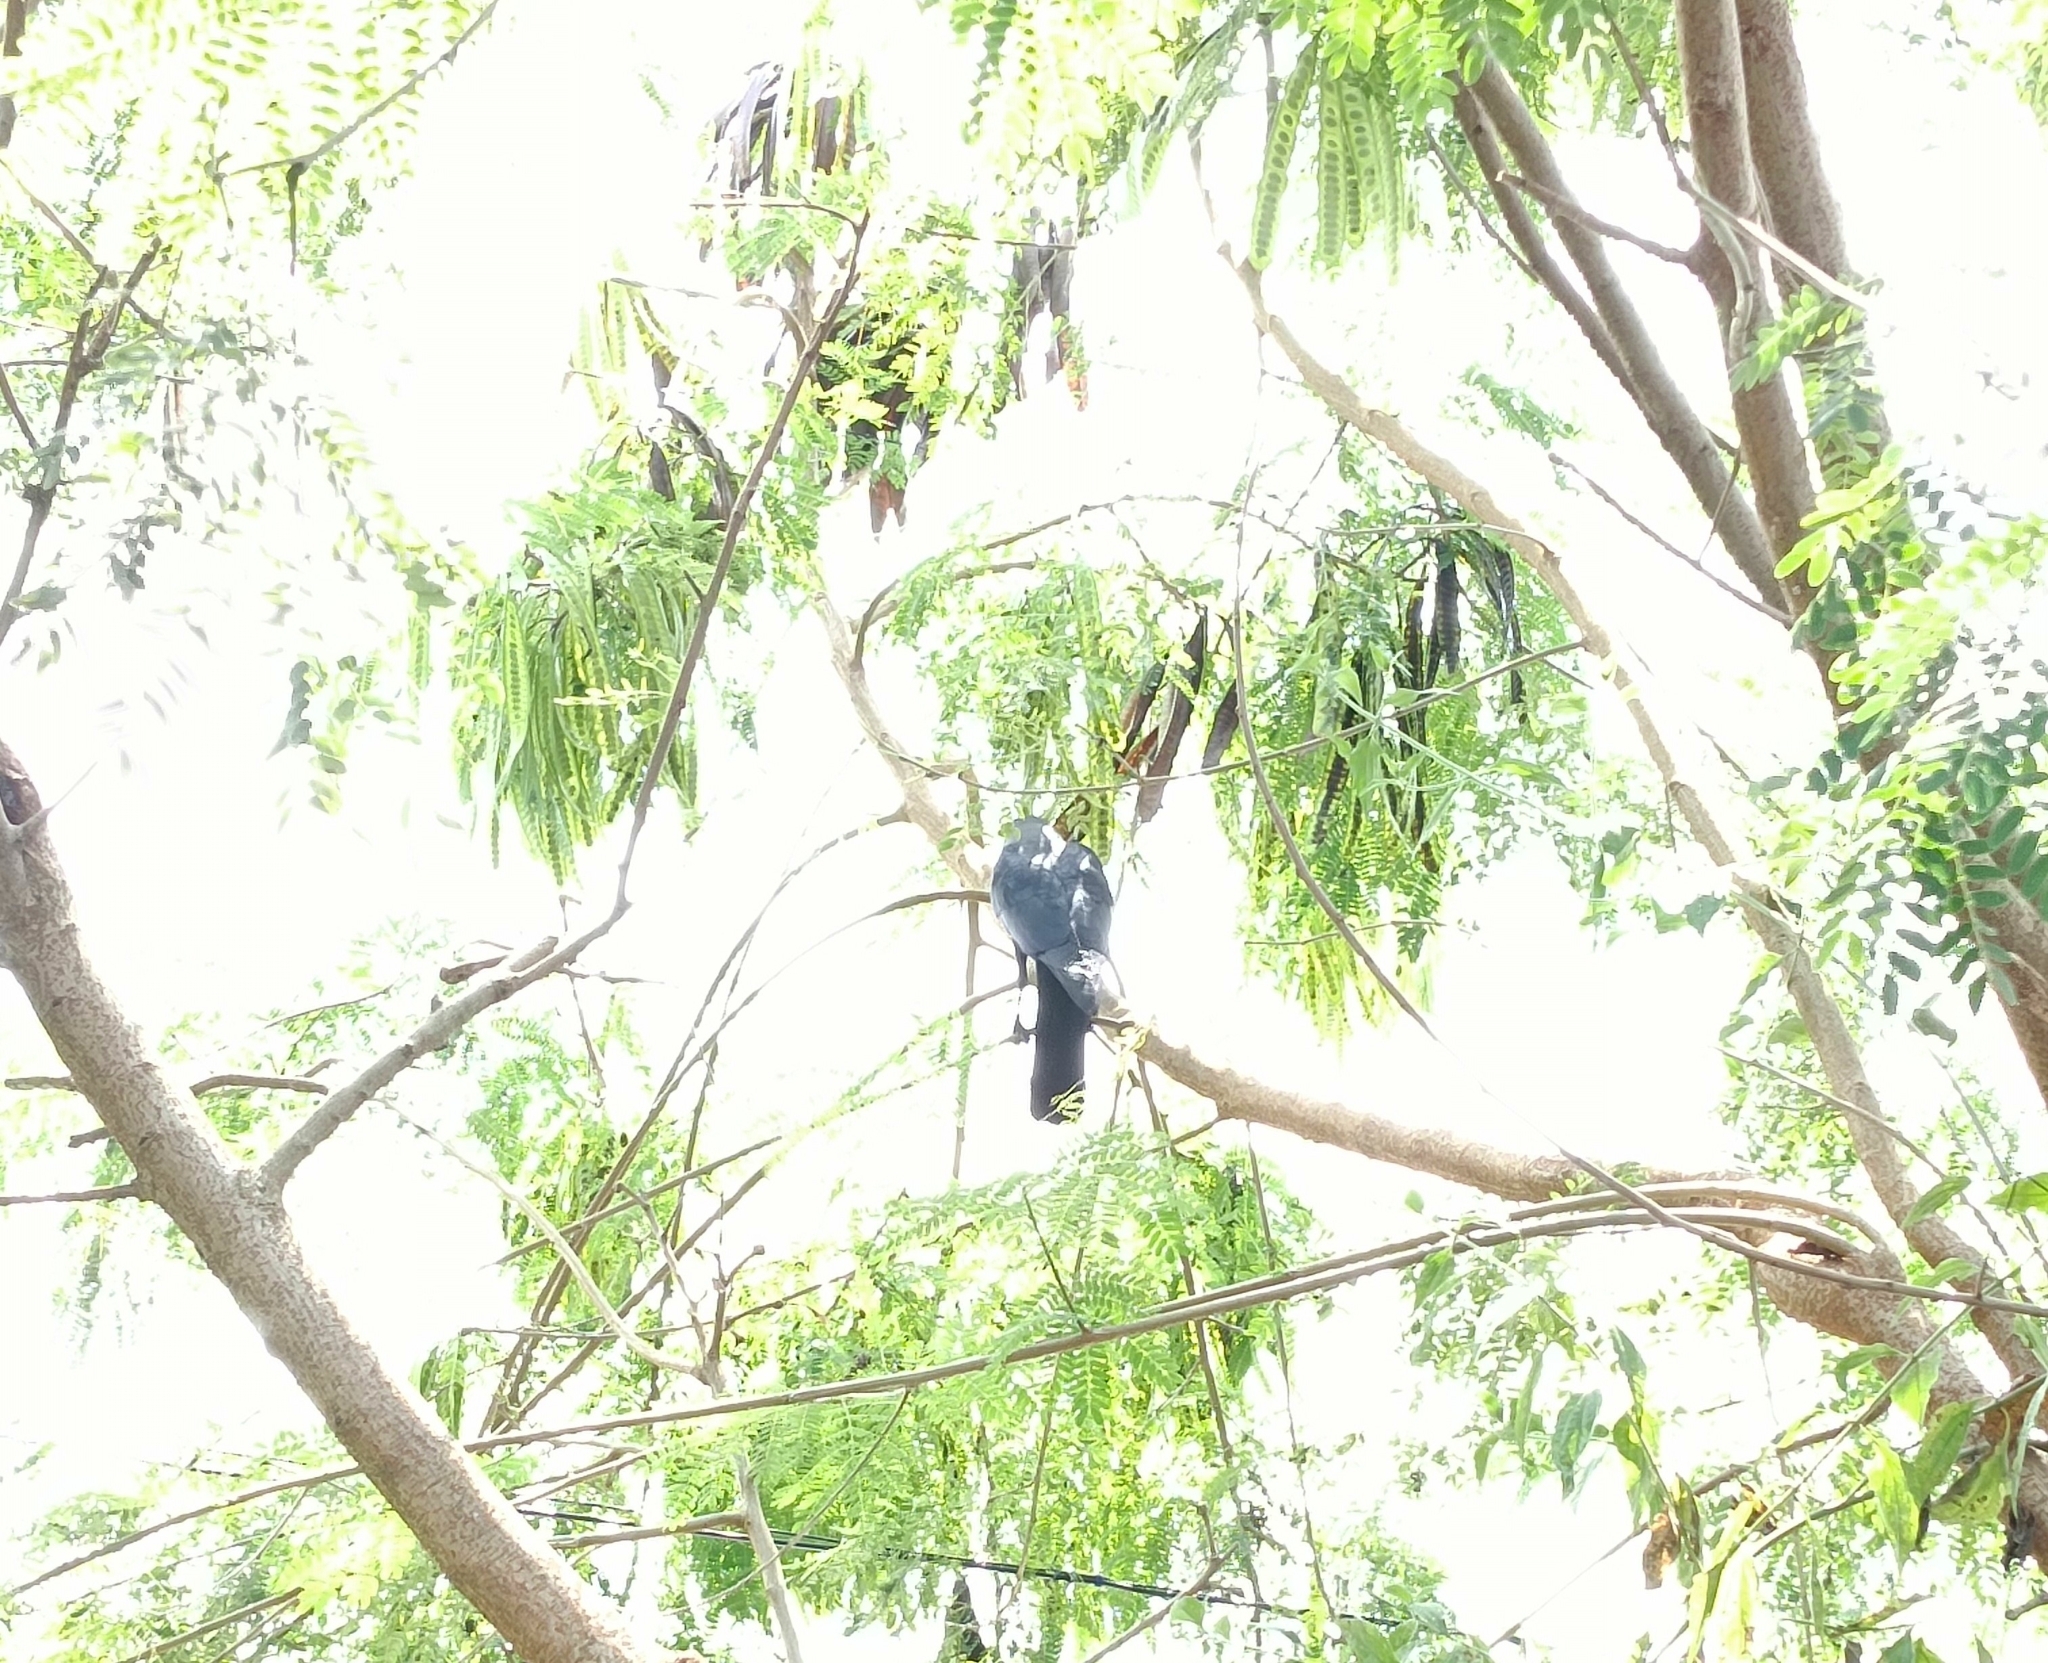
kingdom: Animalia
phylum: Chordata
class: Aves
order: Passeriformes
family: Corvidae
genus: Corvus
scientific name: Corvus splendens
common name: House crow
